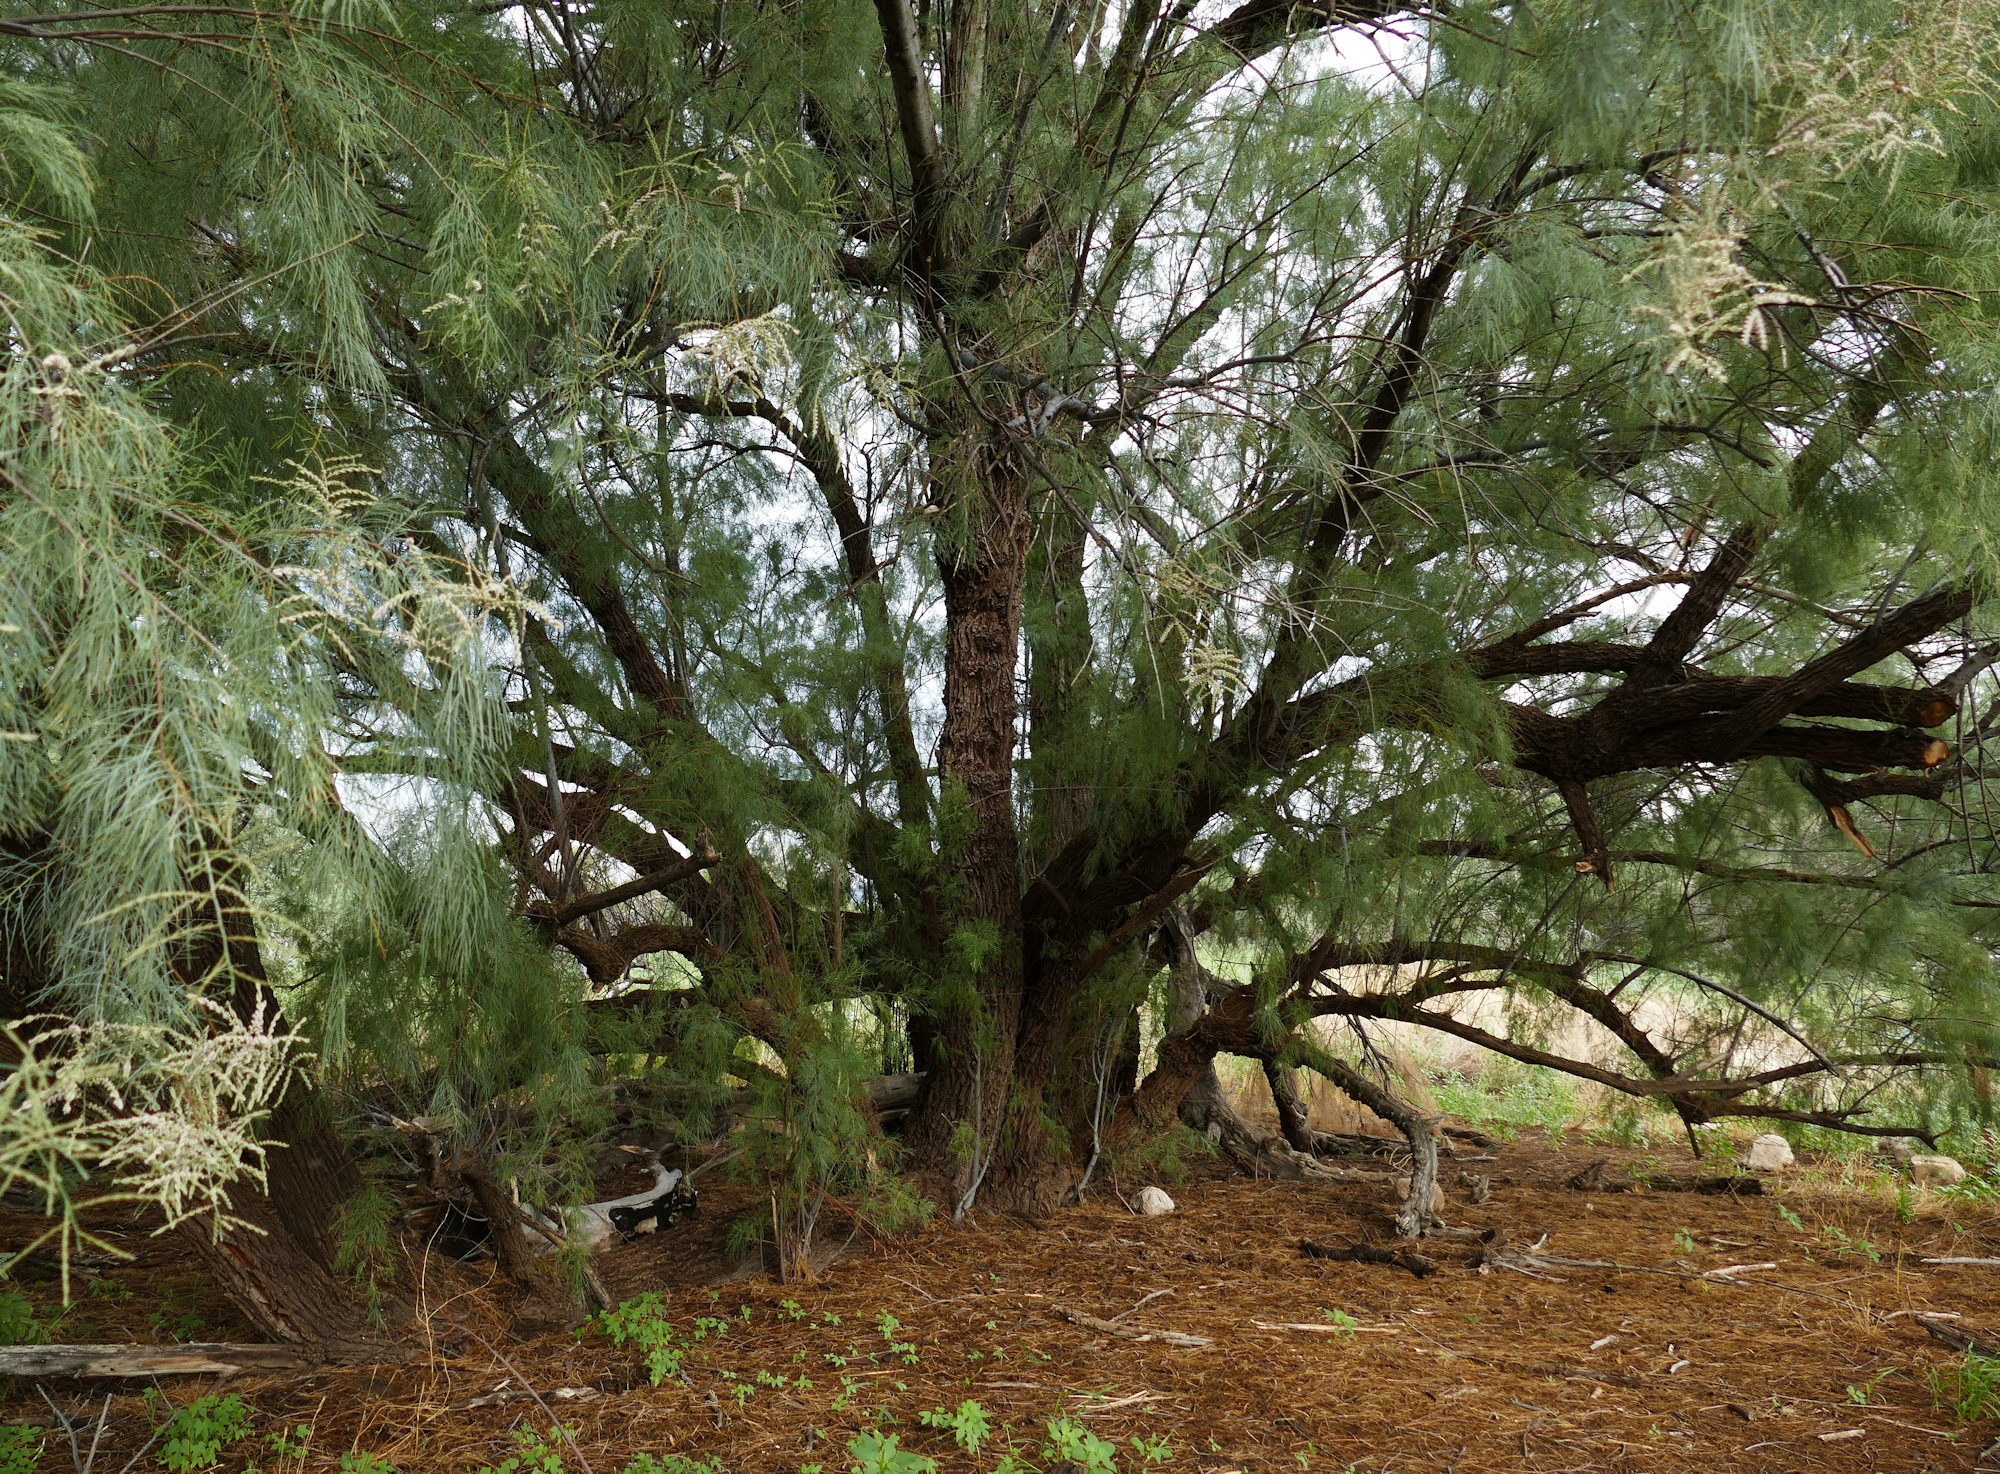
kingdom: Plantae
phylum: Tracheophyta
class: Magnoliopsida
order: Caryophyllales
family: Tamaricaceae
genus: Tamarix
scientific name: Tamarix aphylla
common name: Athel tamarisk
